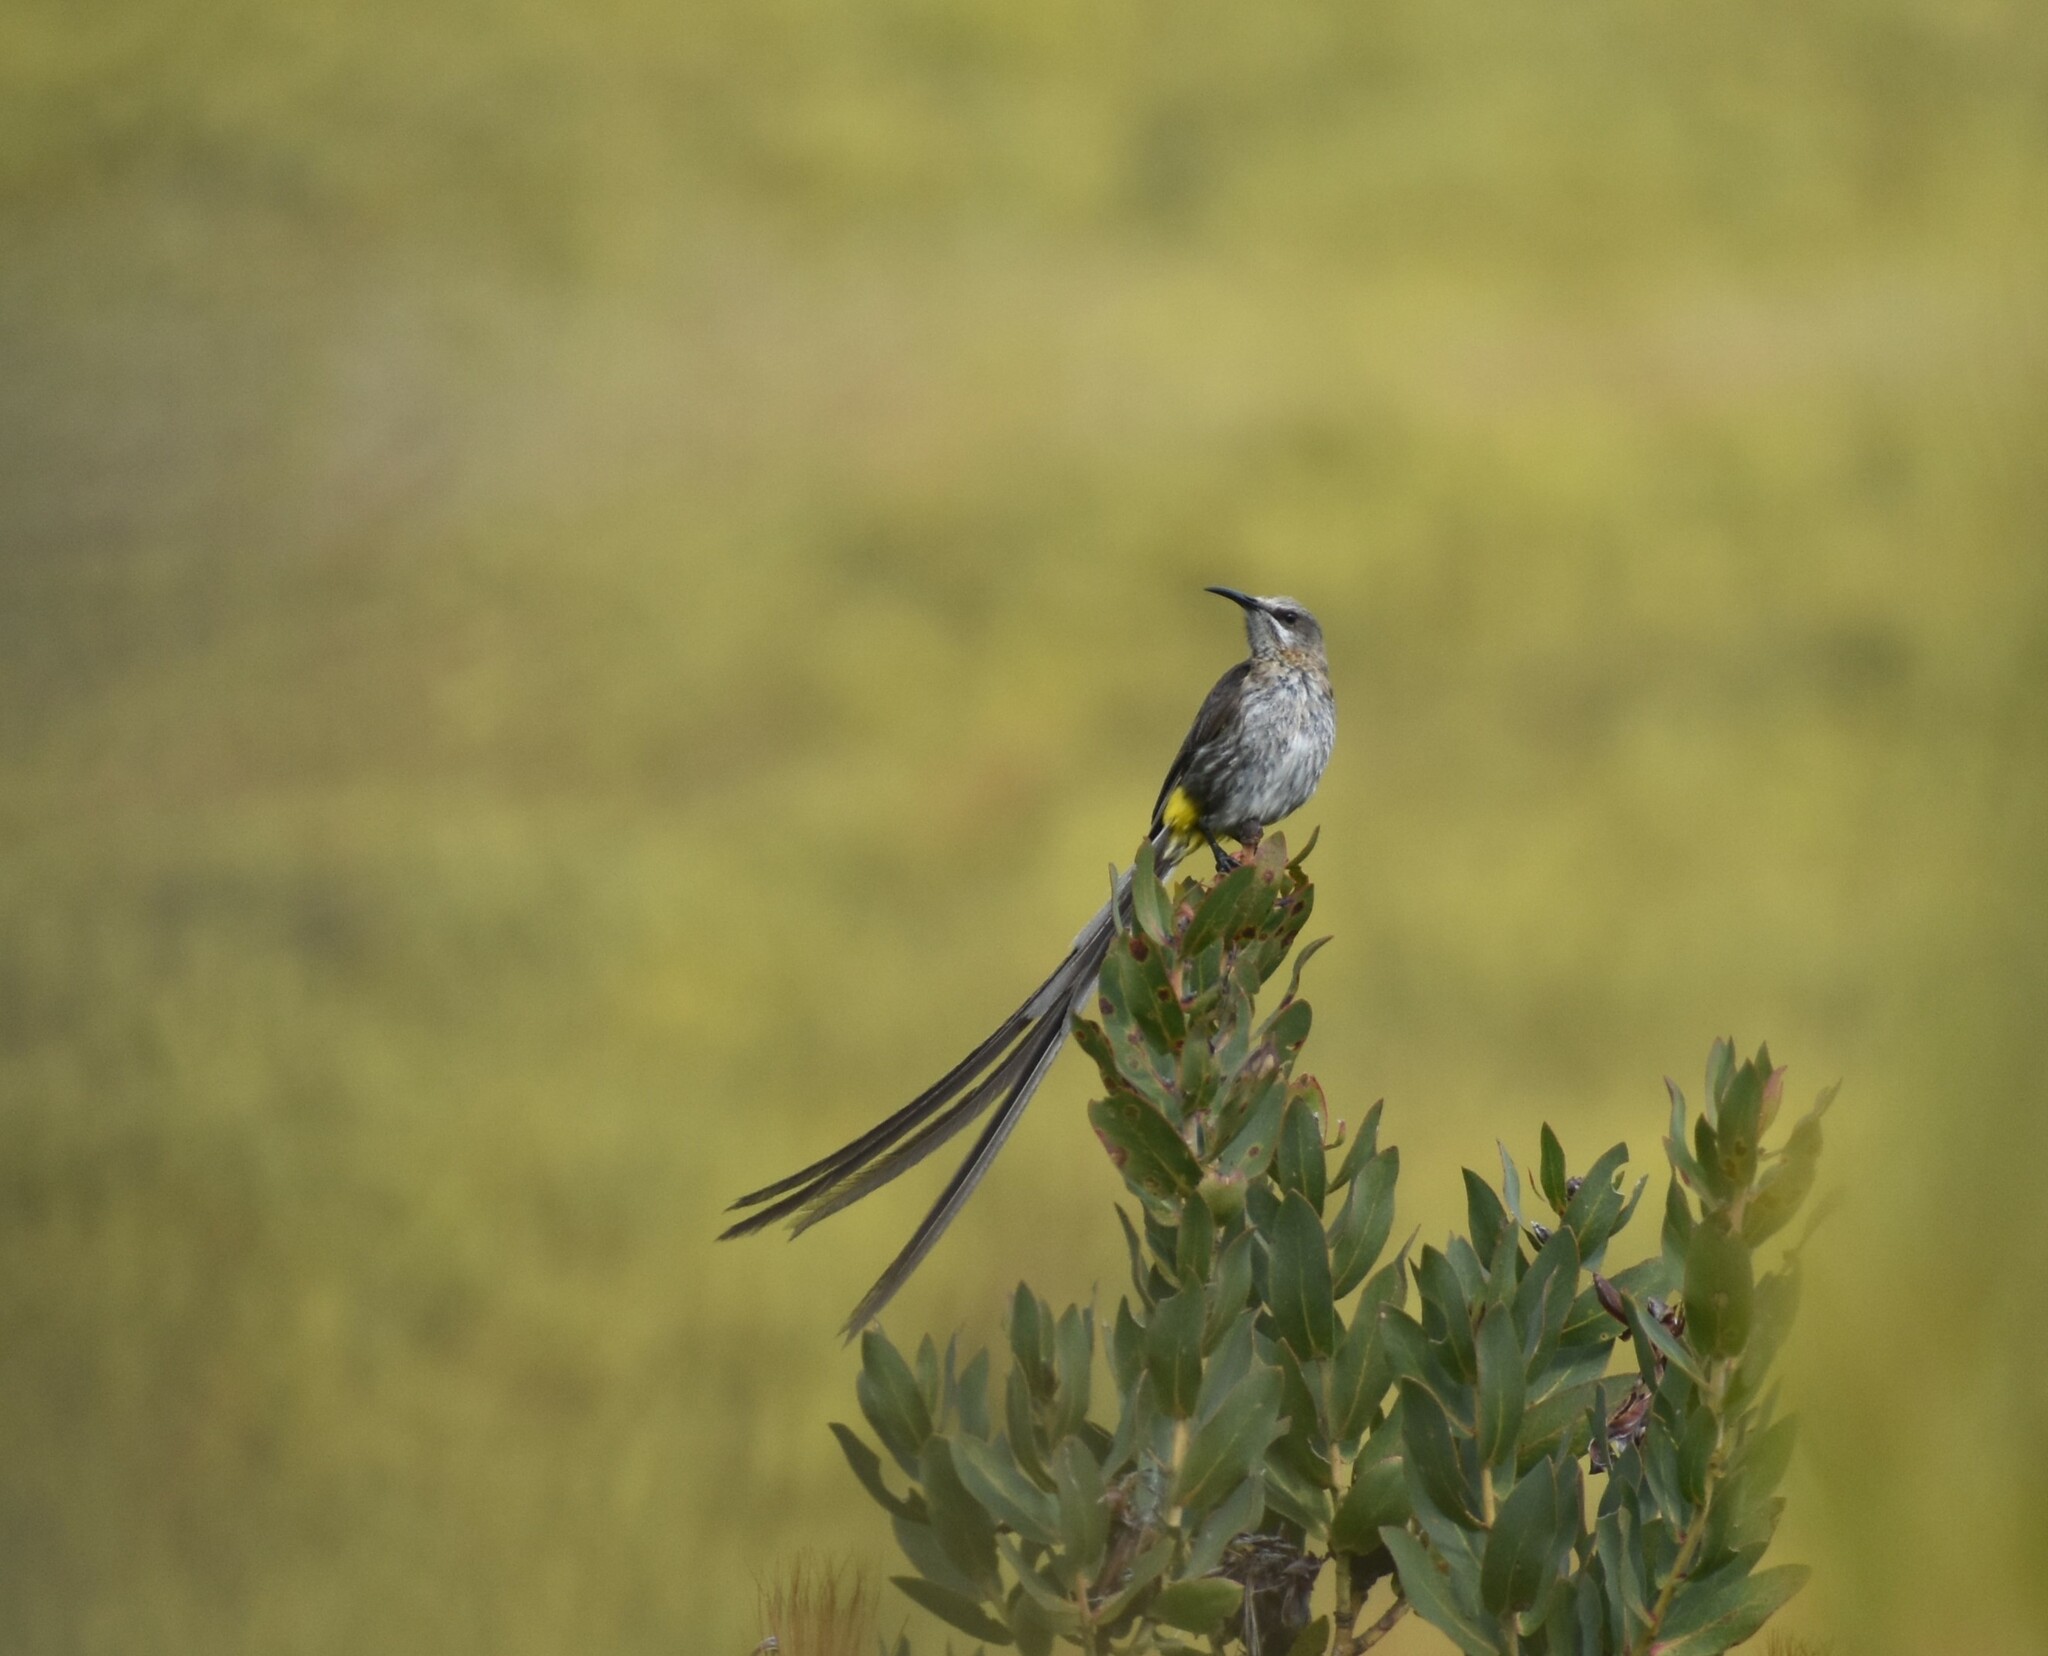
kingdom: Animalia
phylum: Chordata
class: Aves
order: Passeriformes
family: Promeropidae
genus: Promerops
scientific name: Promerops cafer
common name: Cape sugarbird
